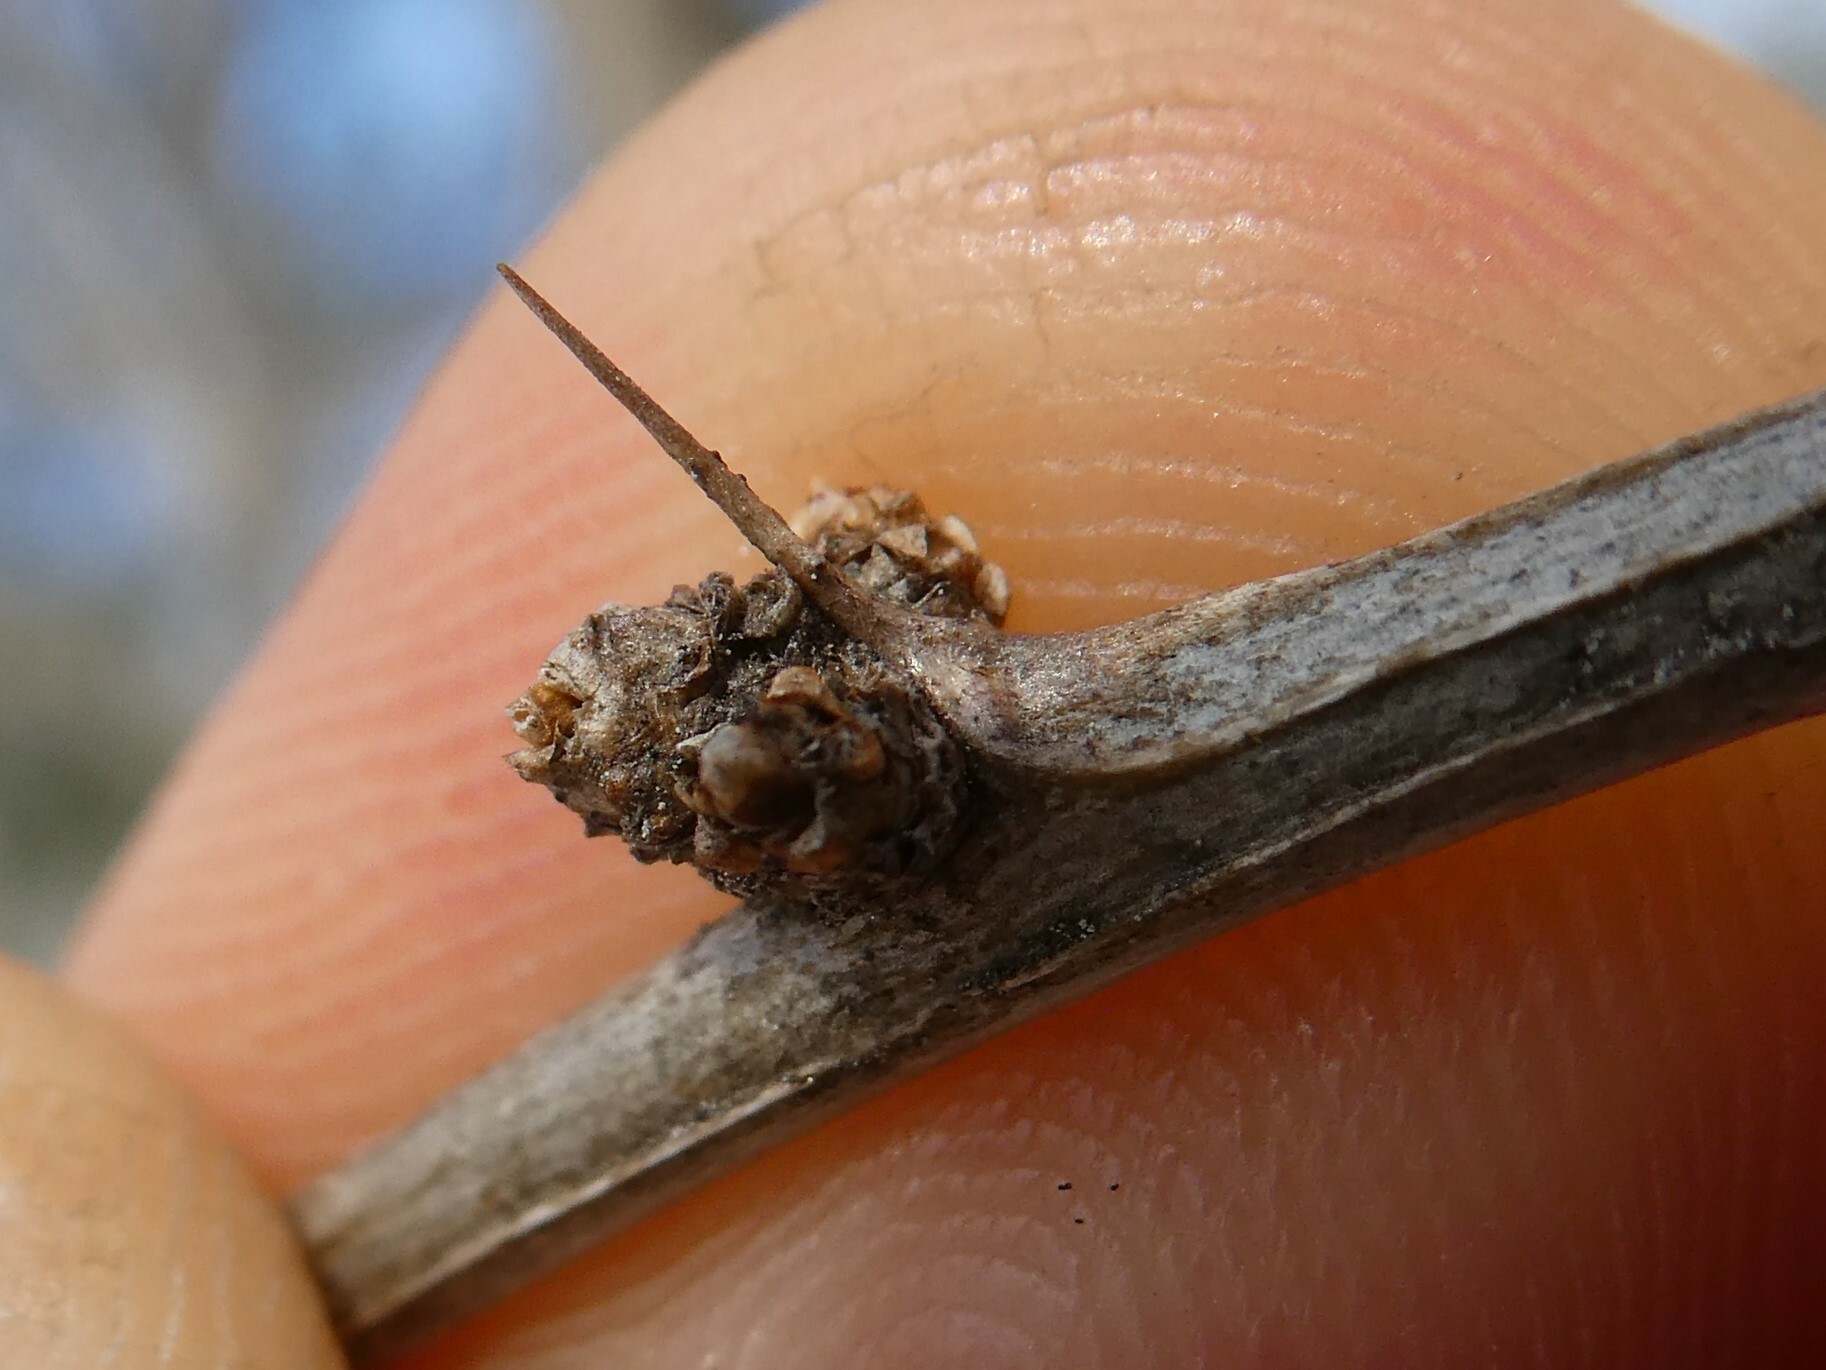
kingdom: Plantae
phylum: Tracheophyta
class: Magnoliopsida
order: Ranunculales
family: Berberidaceae
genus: Berberis
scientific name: Berberis thunbergii
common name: Japanese barberry
